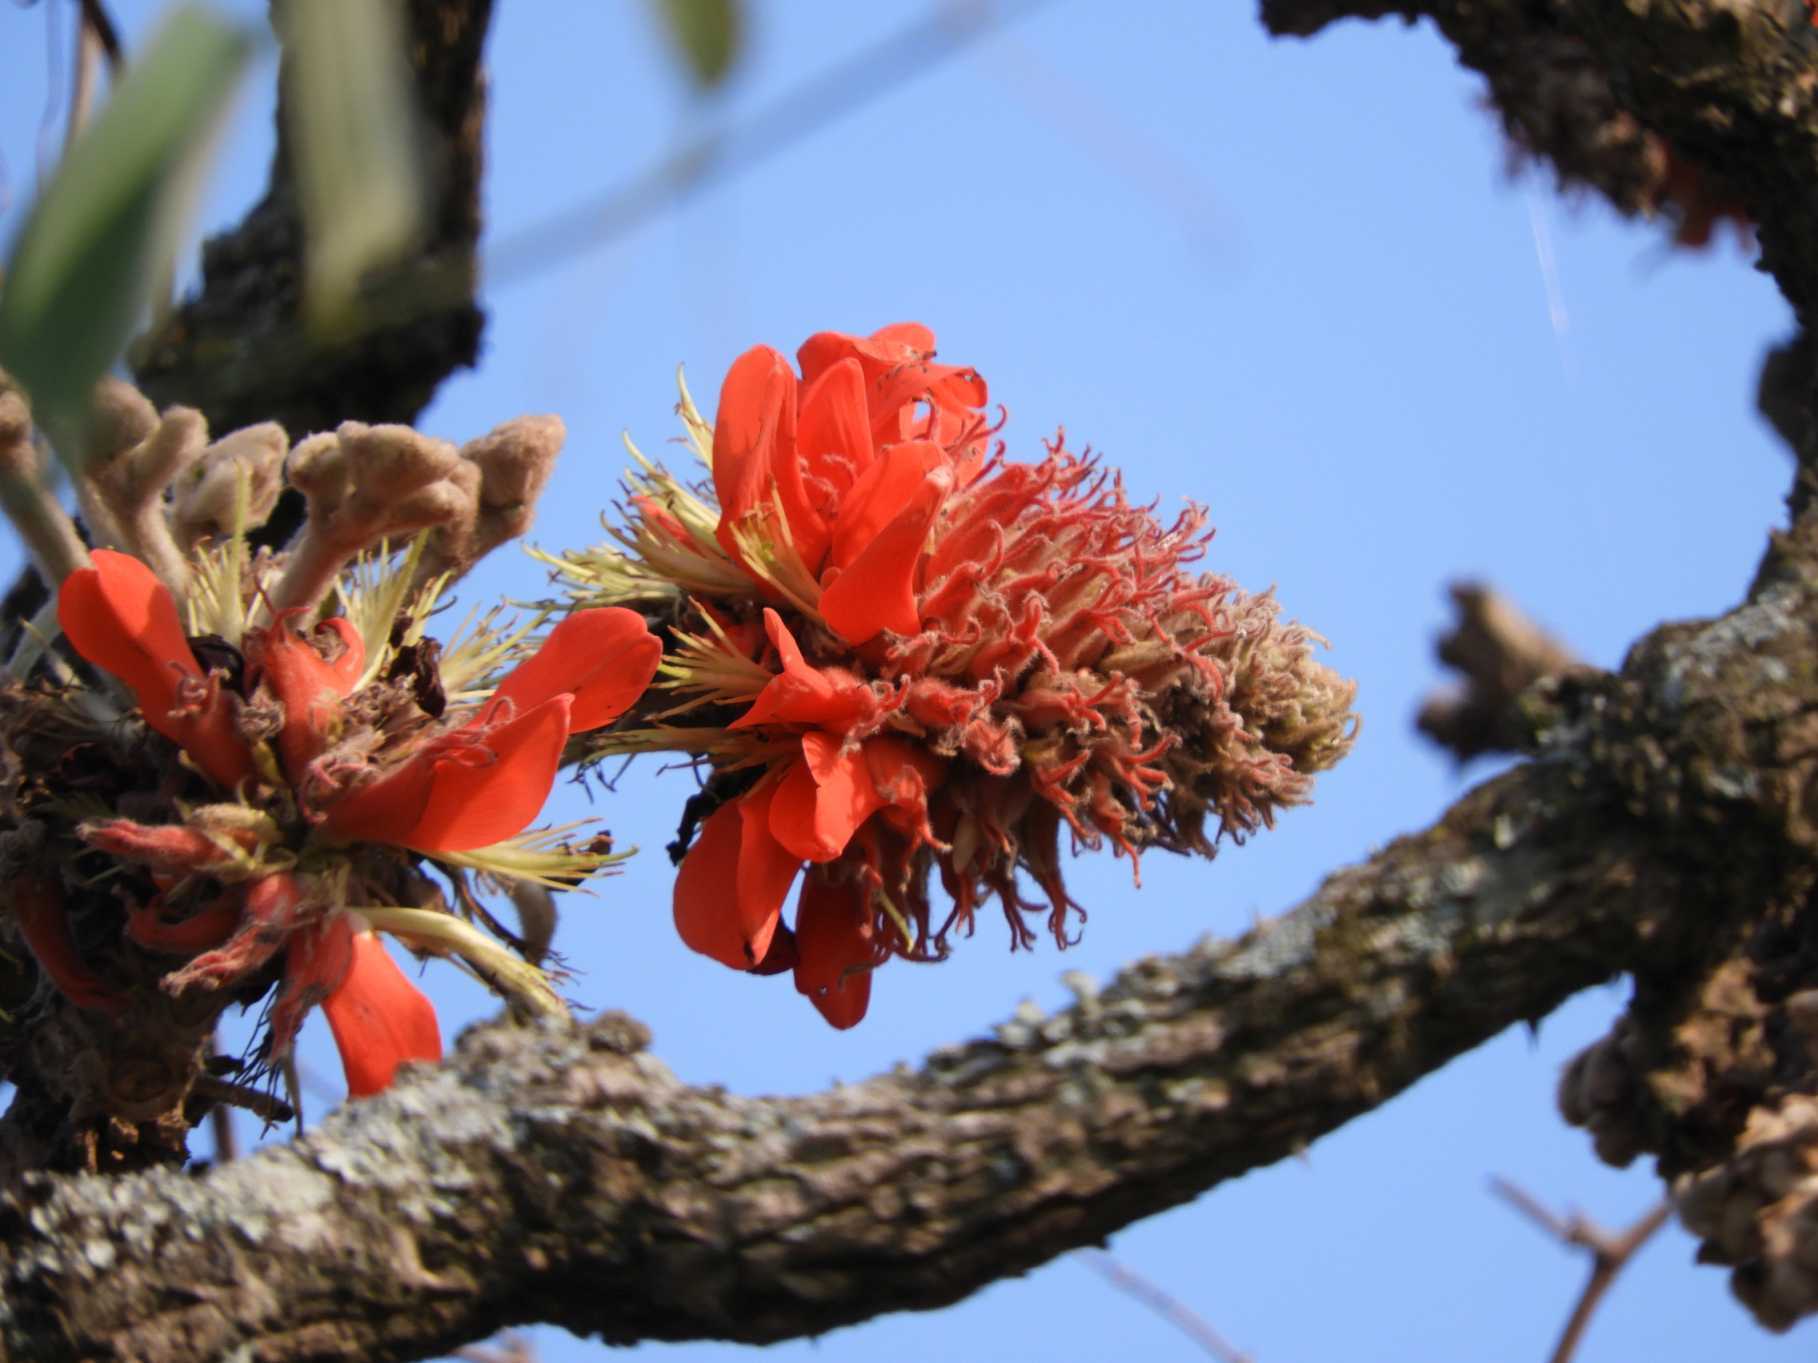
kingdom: Plantae
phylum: Tracheophyta
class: Magnoliopsida
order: Fabales
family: Fabaceae
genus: Erythrina
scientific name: Erythrina latissima
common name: Broad-leaved coral tree
